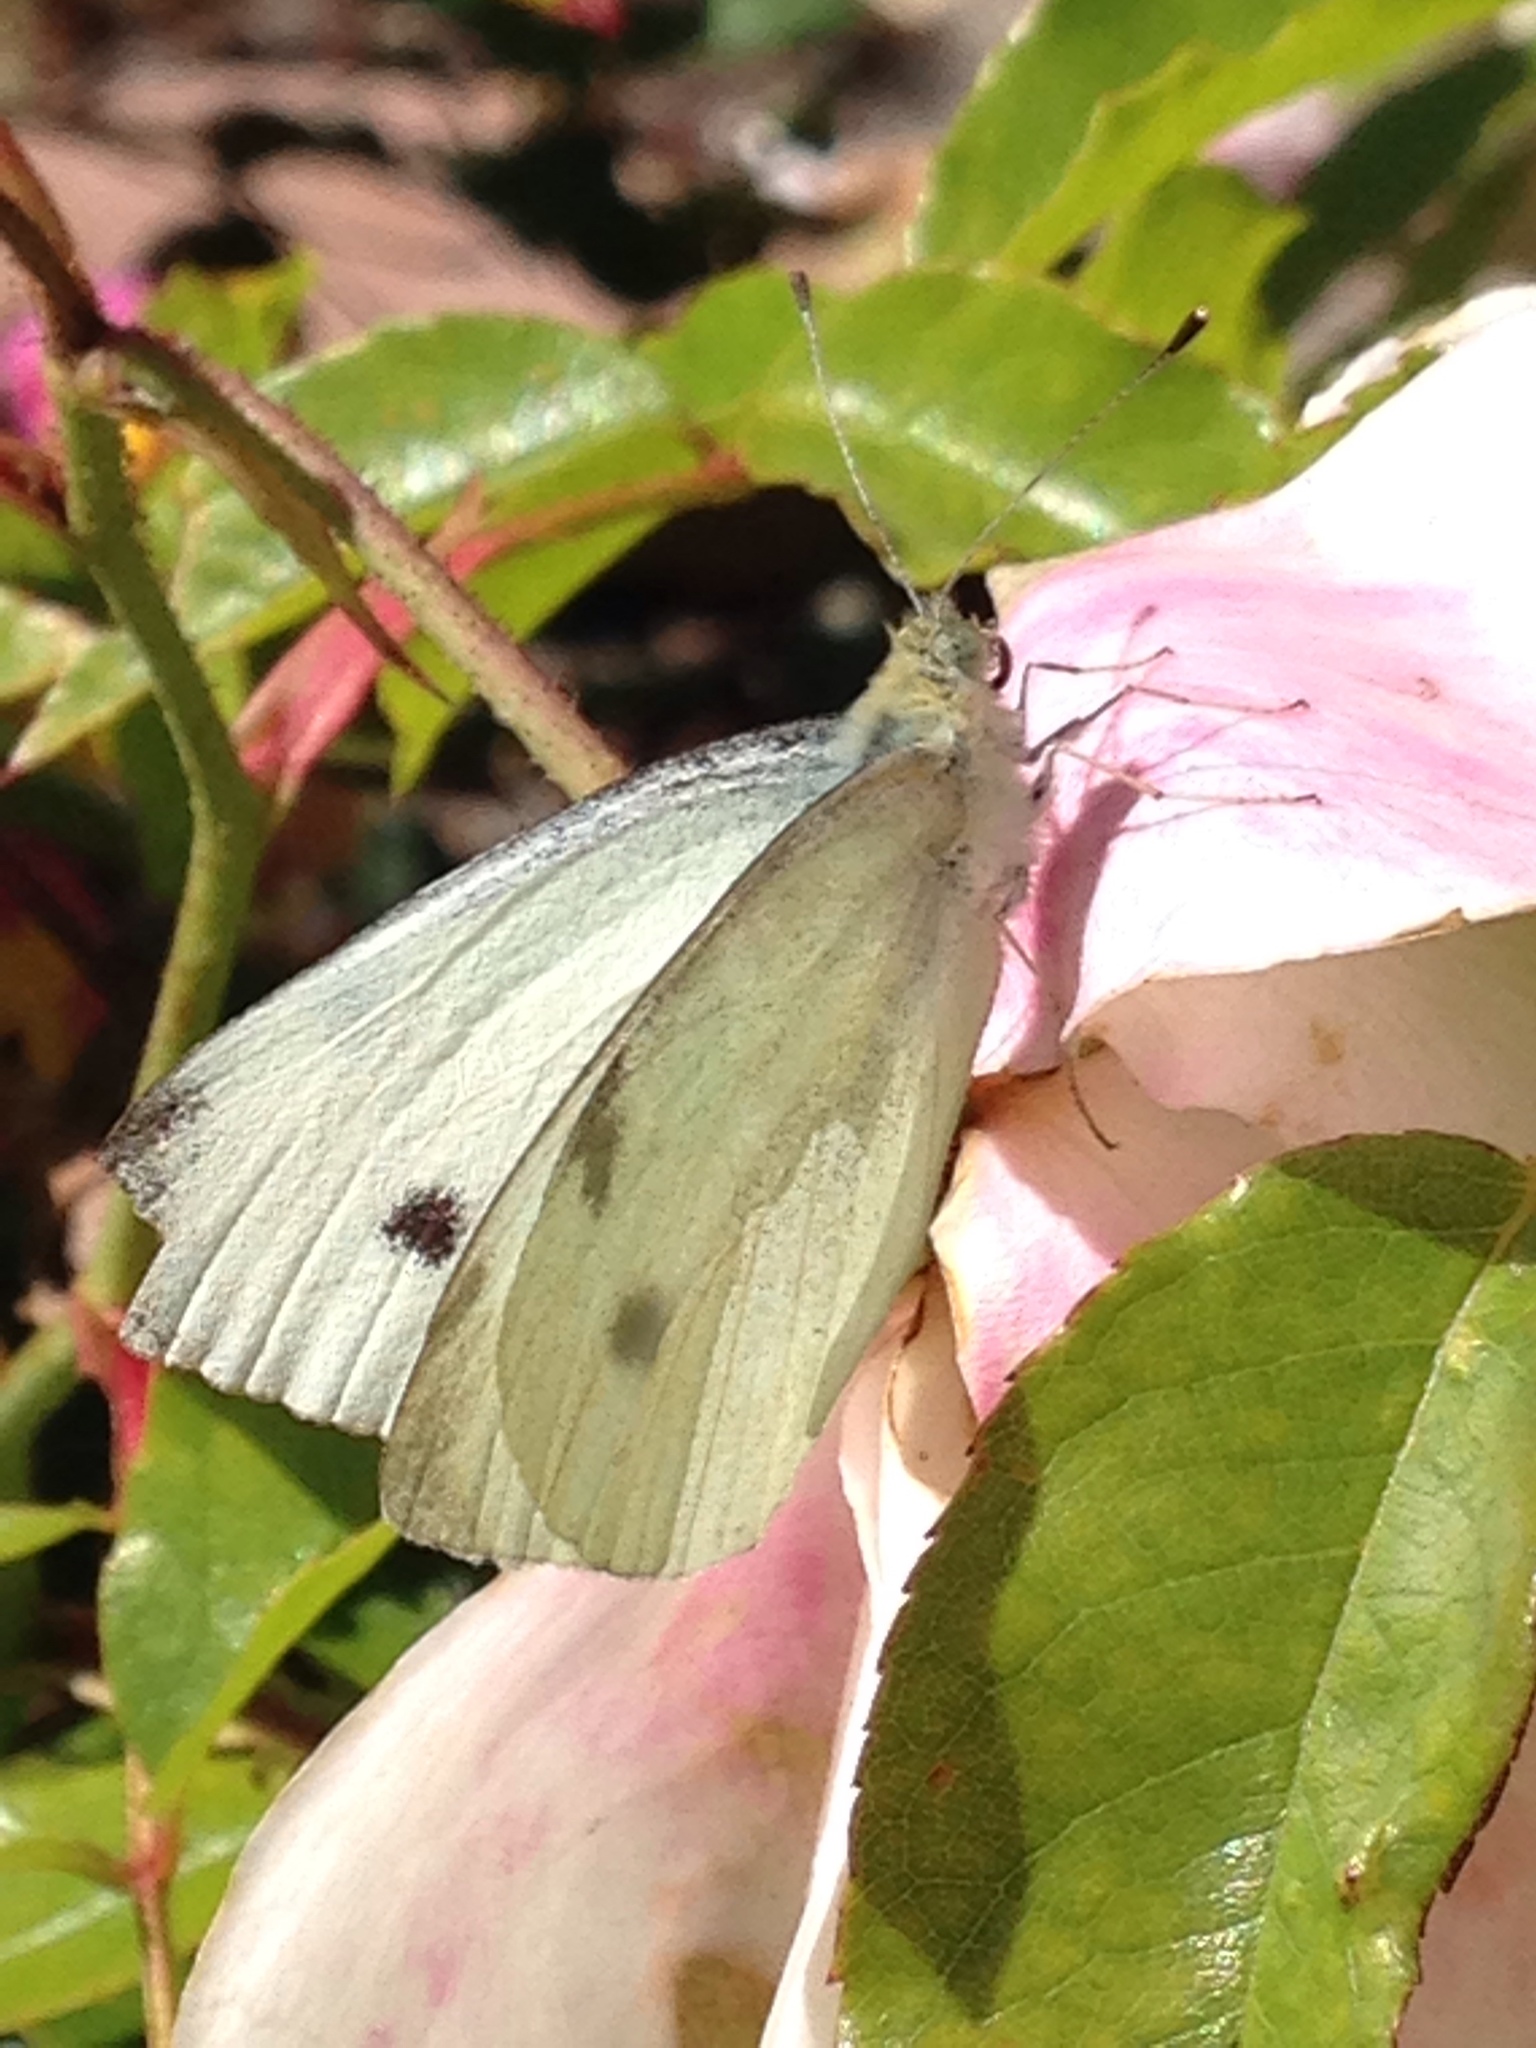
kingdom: Animalia
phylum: Arthropoda
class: Insecta
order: Lepidoptera
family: Pieridae
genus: Pieris
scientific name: Pieris rapae
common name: Small white
